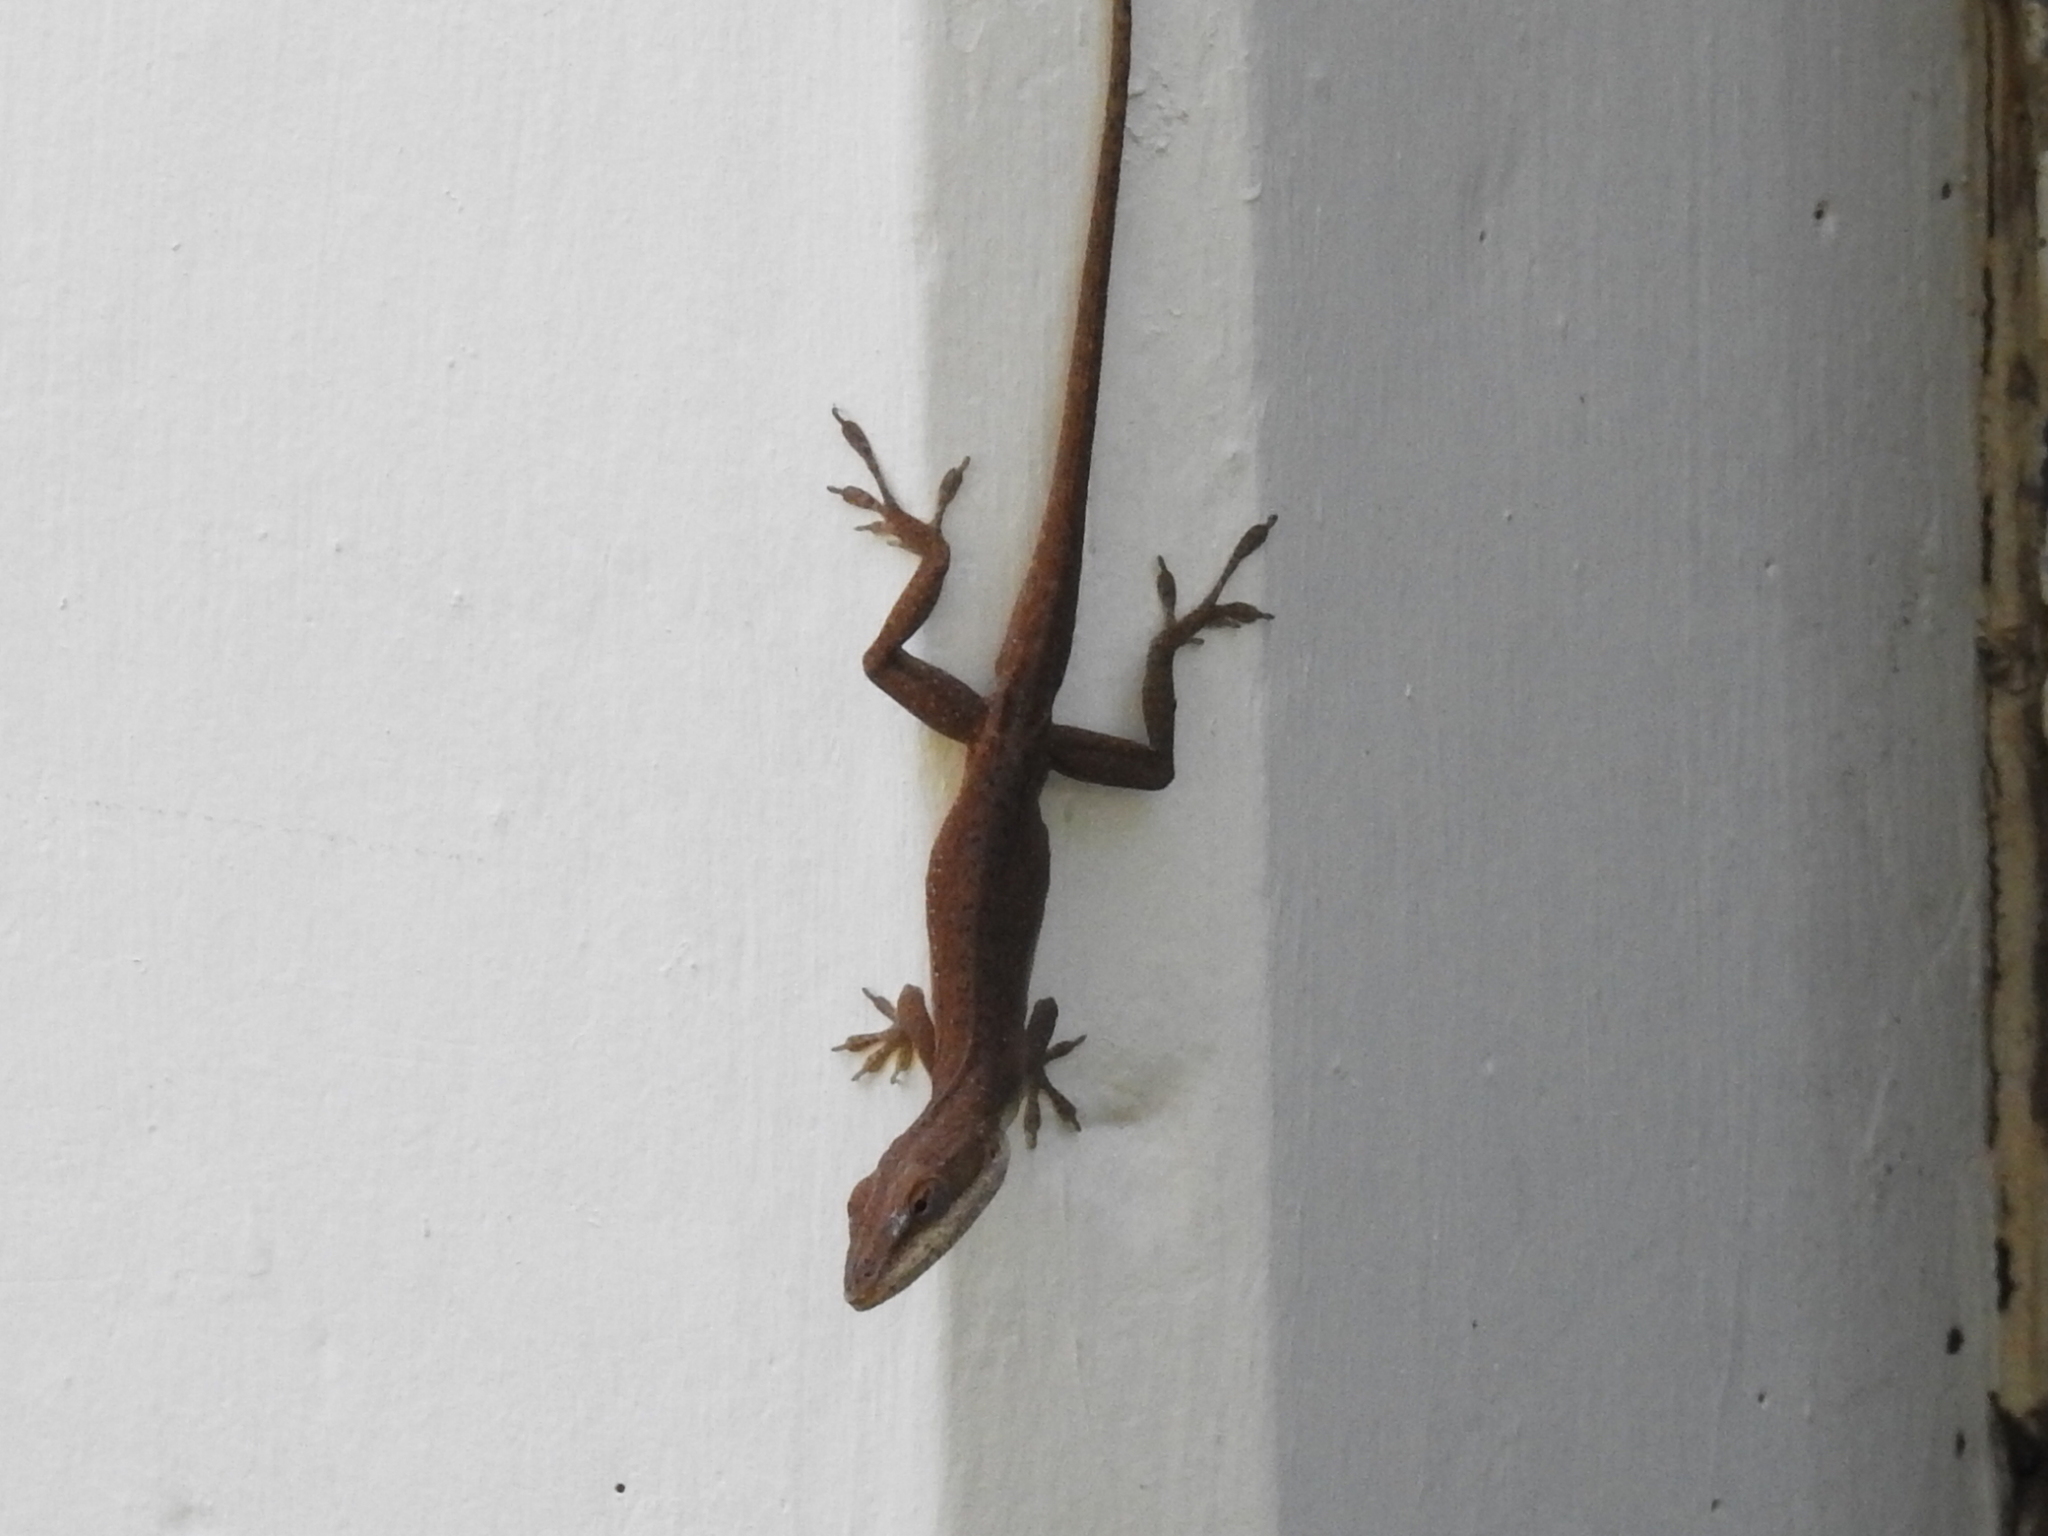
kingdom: Animalia
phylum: Chordata
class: Squamata
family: Dactyloidae
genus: Anolis
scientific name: Anolis carolinensis
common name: Green anole
